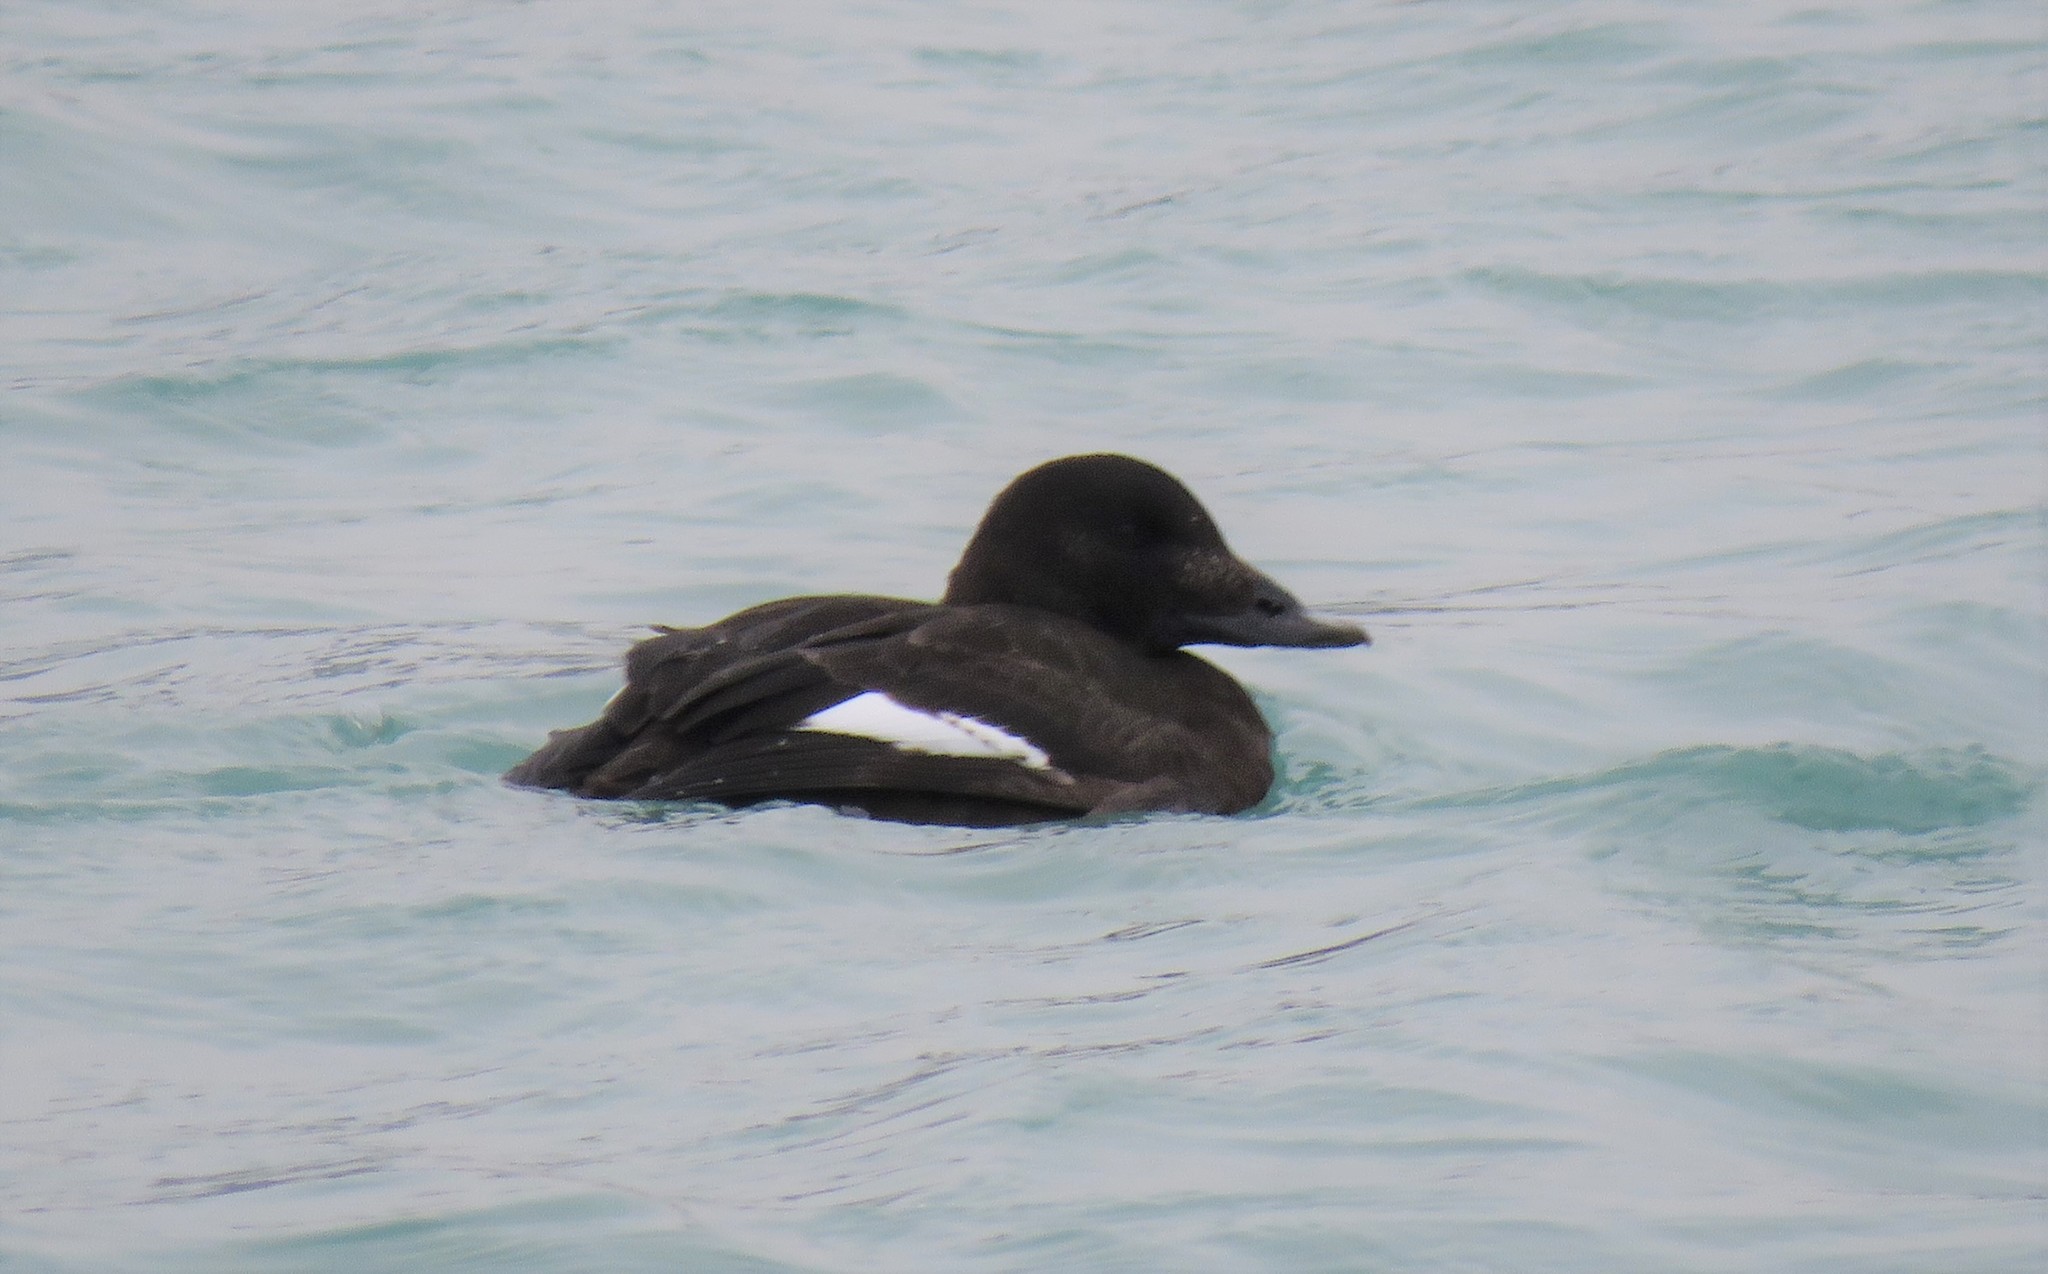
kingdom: Animalia
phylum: Chordata
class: Aves
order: Anseriformes
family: Anatidae
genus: Melanitta
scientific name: Melanitta deglandi
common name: White-winged scoter
